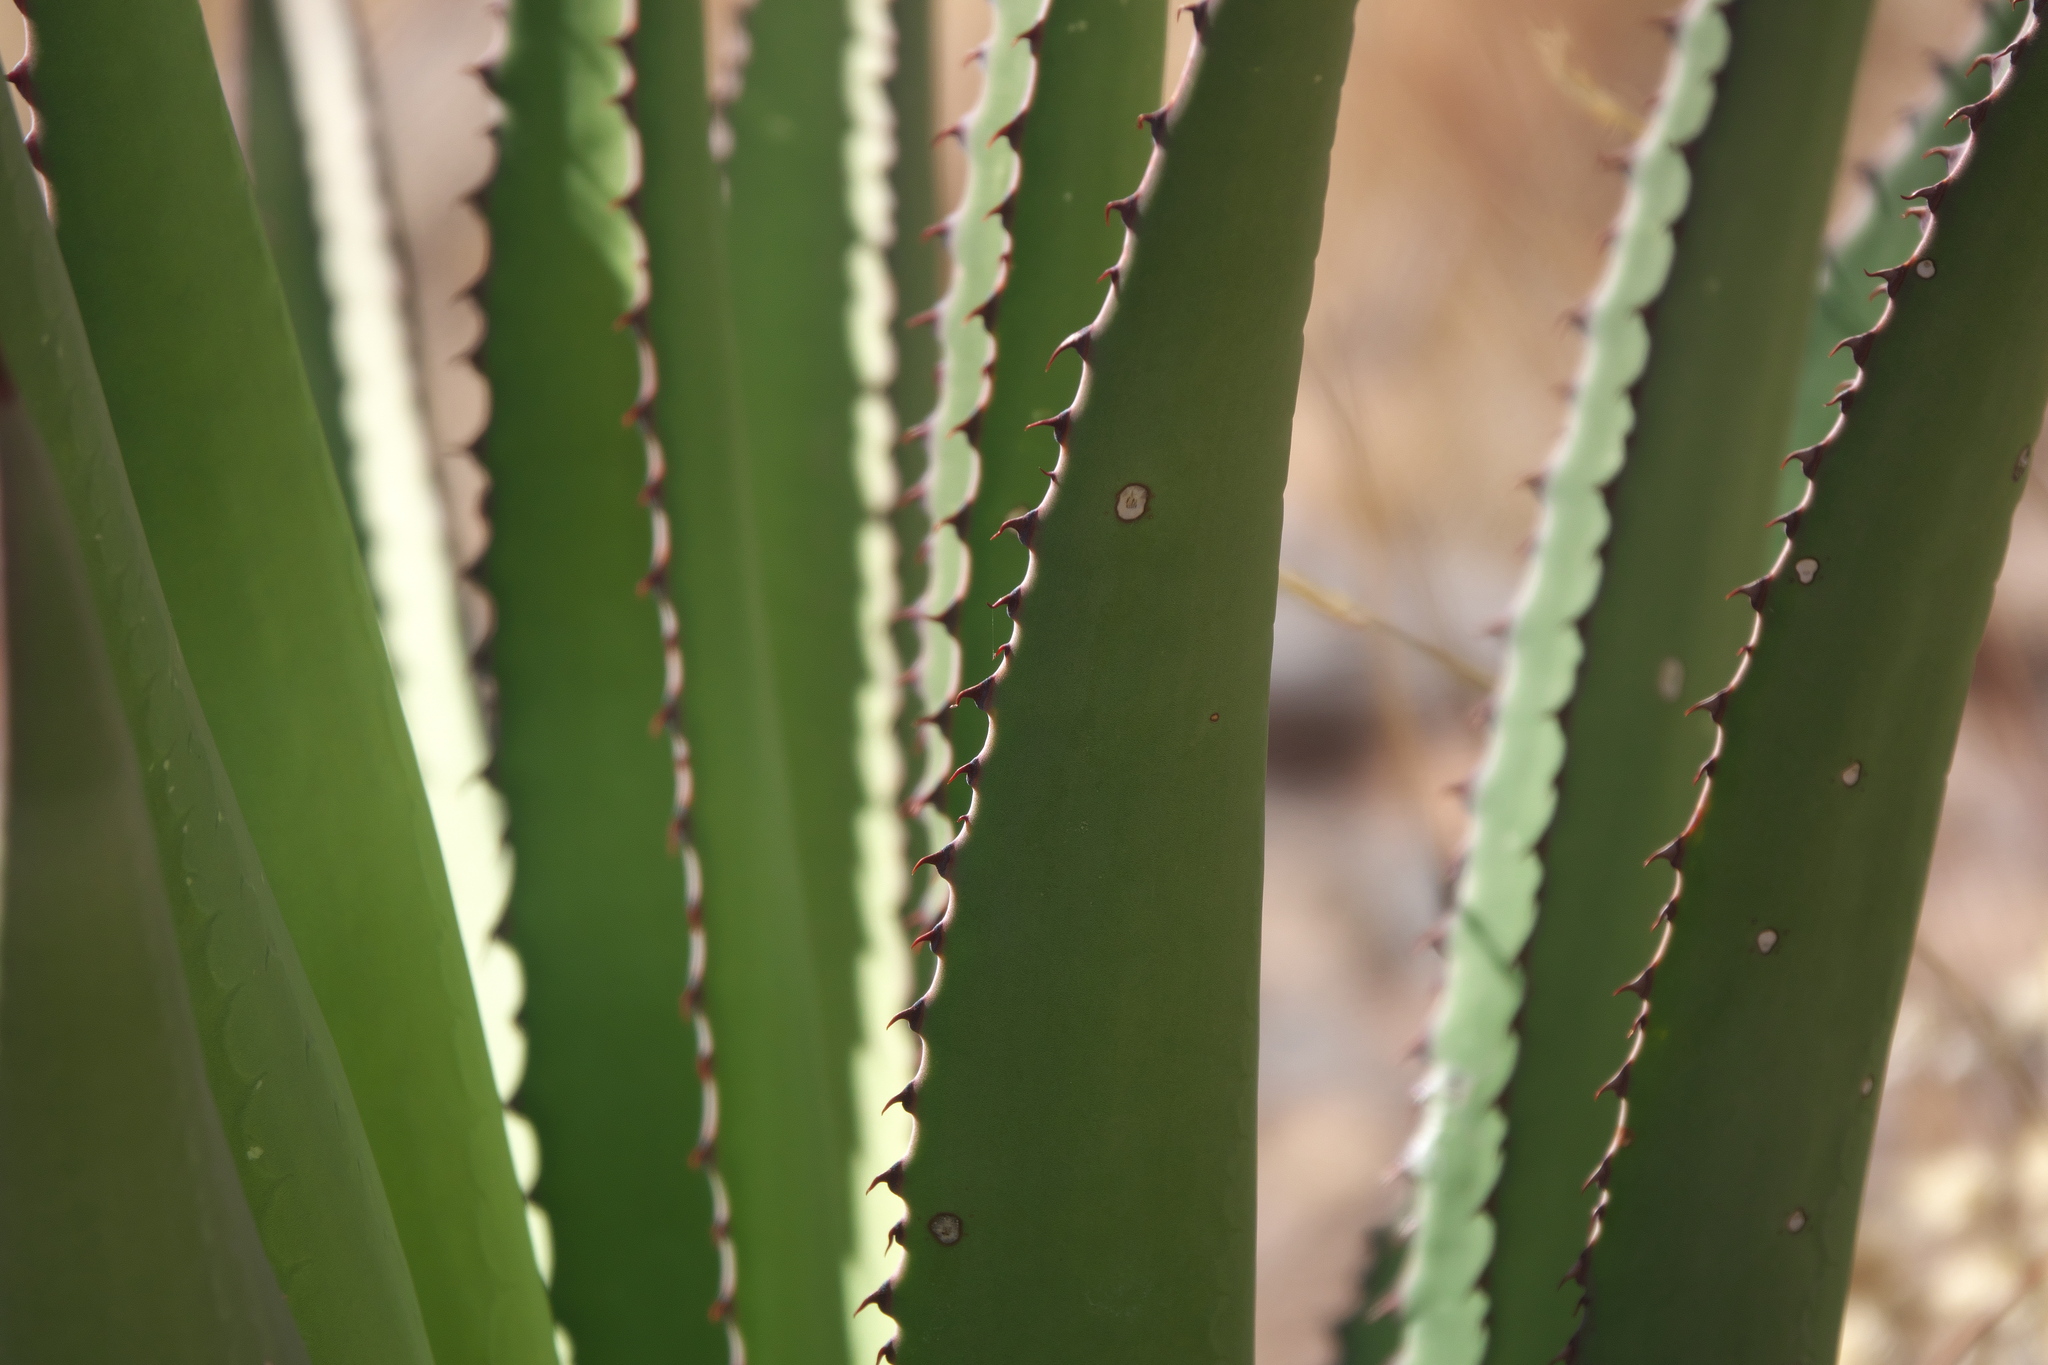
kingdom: Plantae
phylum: Tracheophyta
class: Liliopsida
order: Asparagales
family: Asparagaceae
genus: Agave
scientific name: Agave palmeri
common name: Palmer agave
